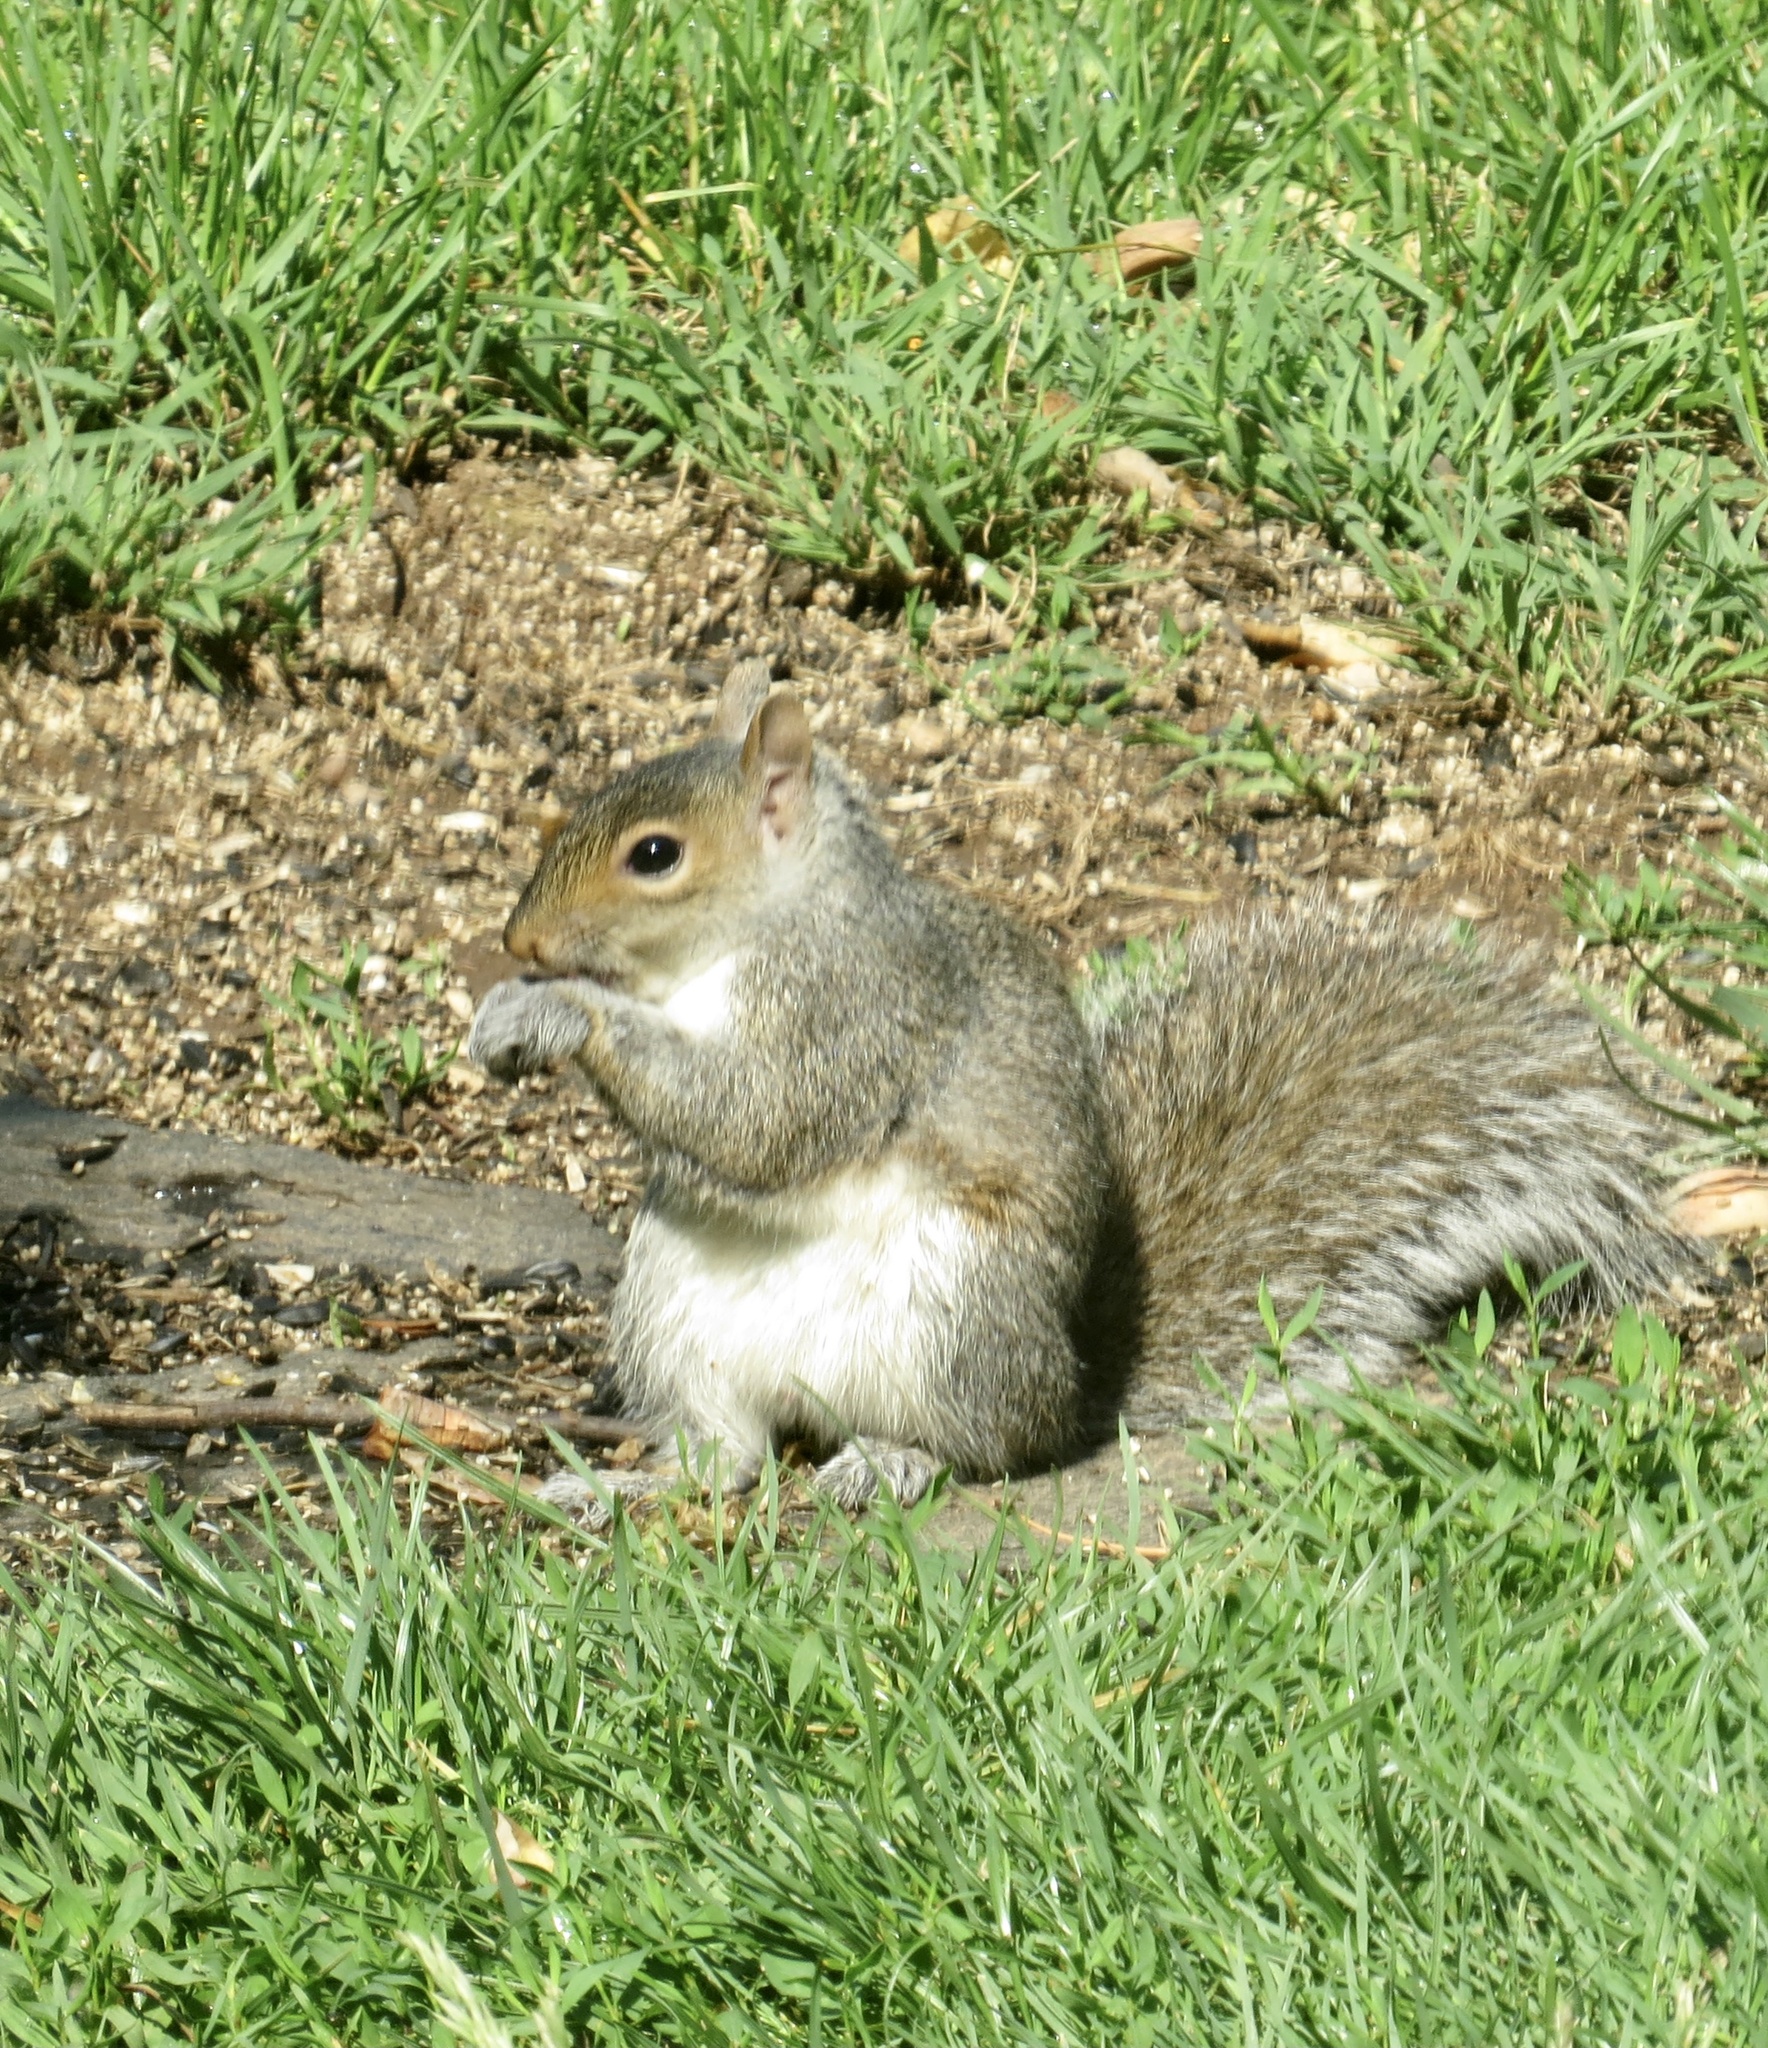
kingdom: Animalia
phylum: Chordata
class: Mammalia
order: Rodentia
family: Sciuridae
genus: Sciurus
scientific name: Sciurus carolinensis
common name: Eastern gray squirrel
